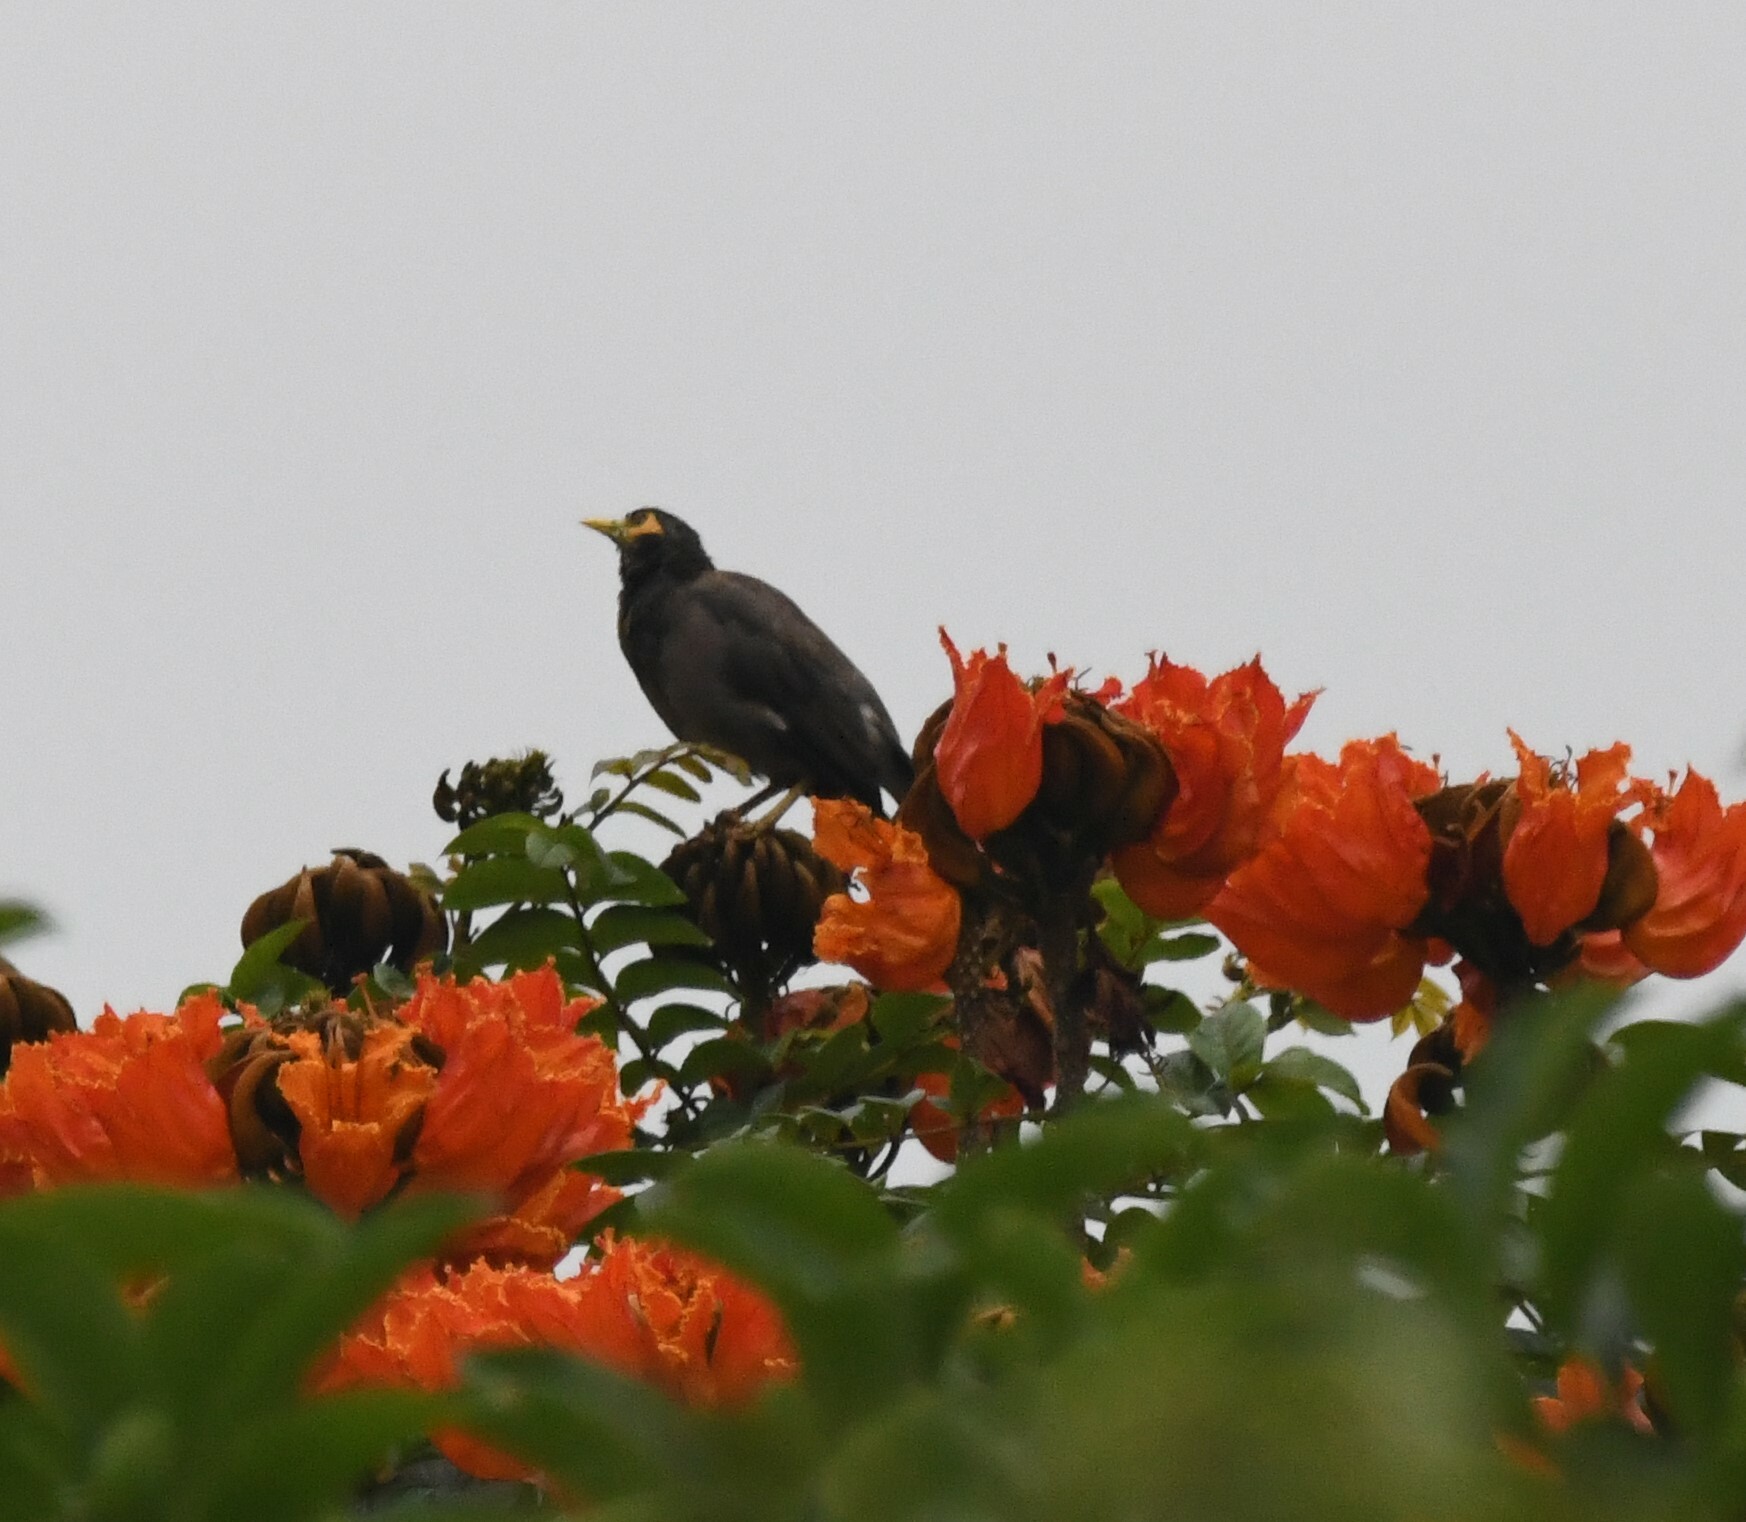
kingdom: Animalia
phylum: Chordata
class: Aves
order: Passeriformes
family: Sturnidae
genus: Acridotheres
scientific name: Acridotheres tristis
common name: Common myna
